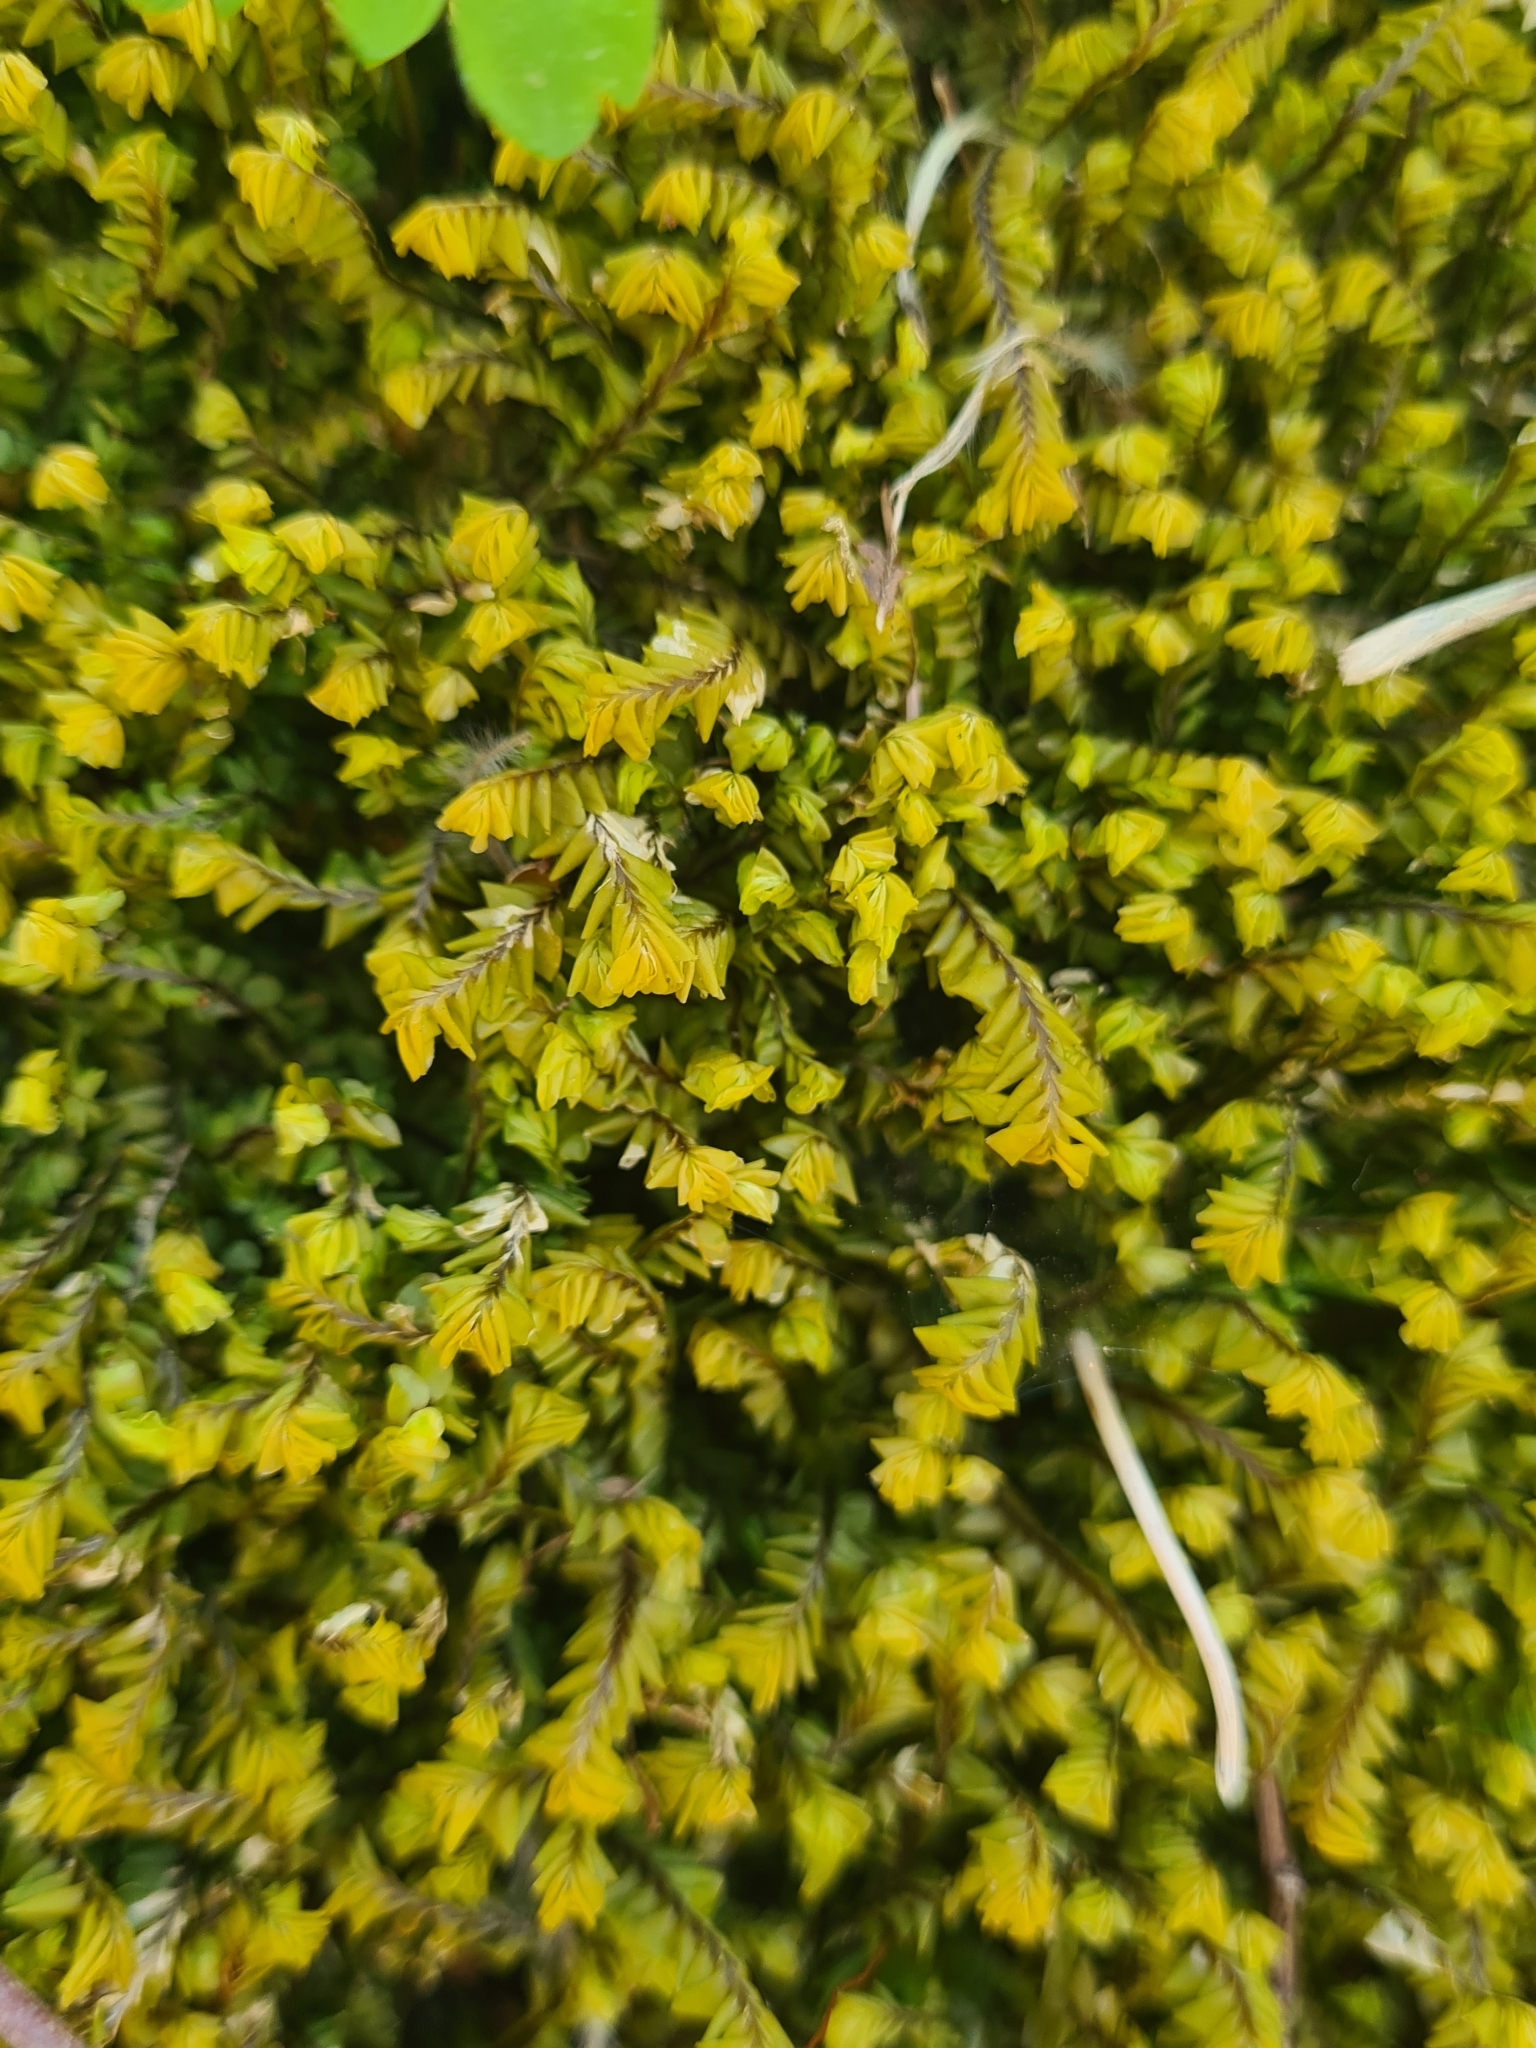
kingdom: Plantae
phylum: Marchantiophyta
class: Jungermanniopsida
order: Jungermanniales
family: Plagiochilaceae
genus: Plagiochila
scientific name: Plagiochila asplenioides
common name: Greater featherwort
